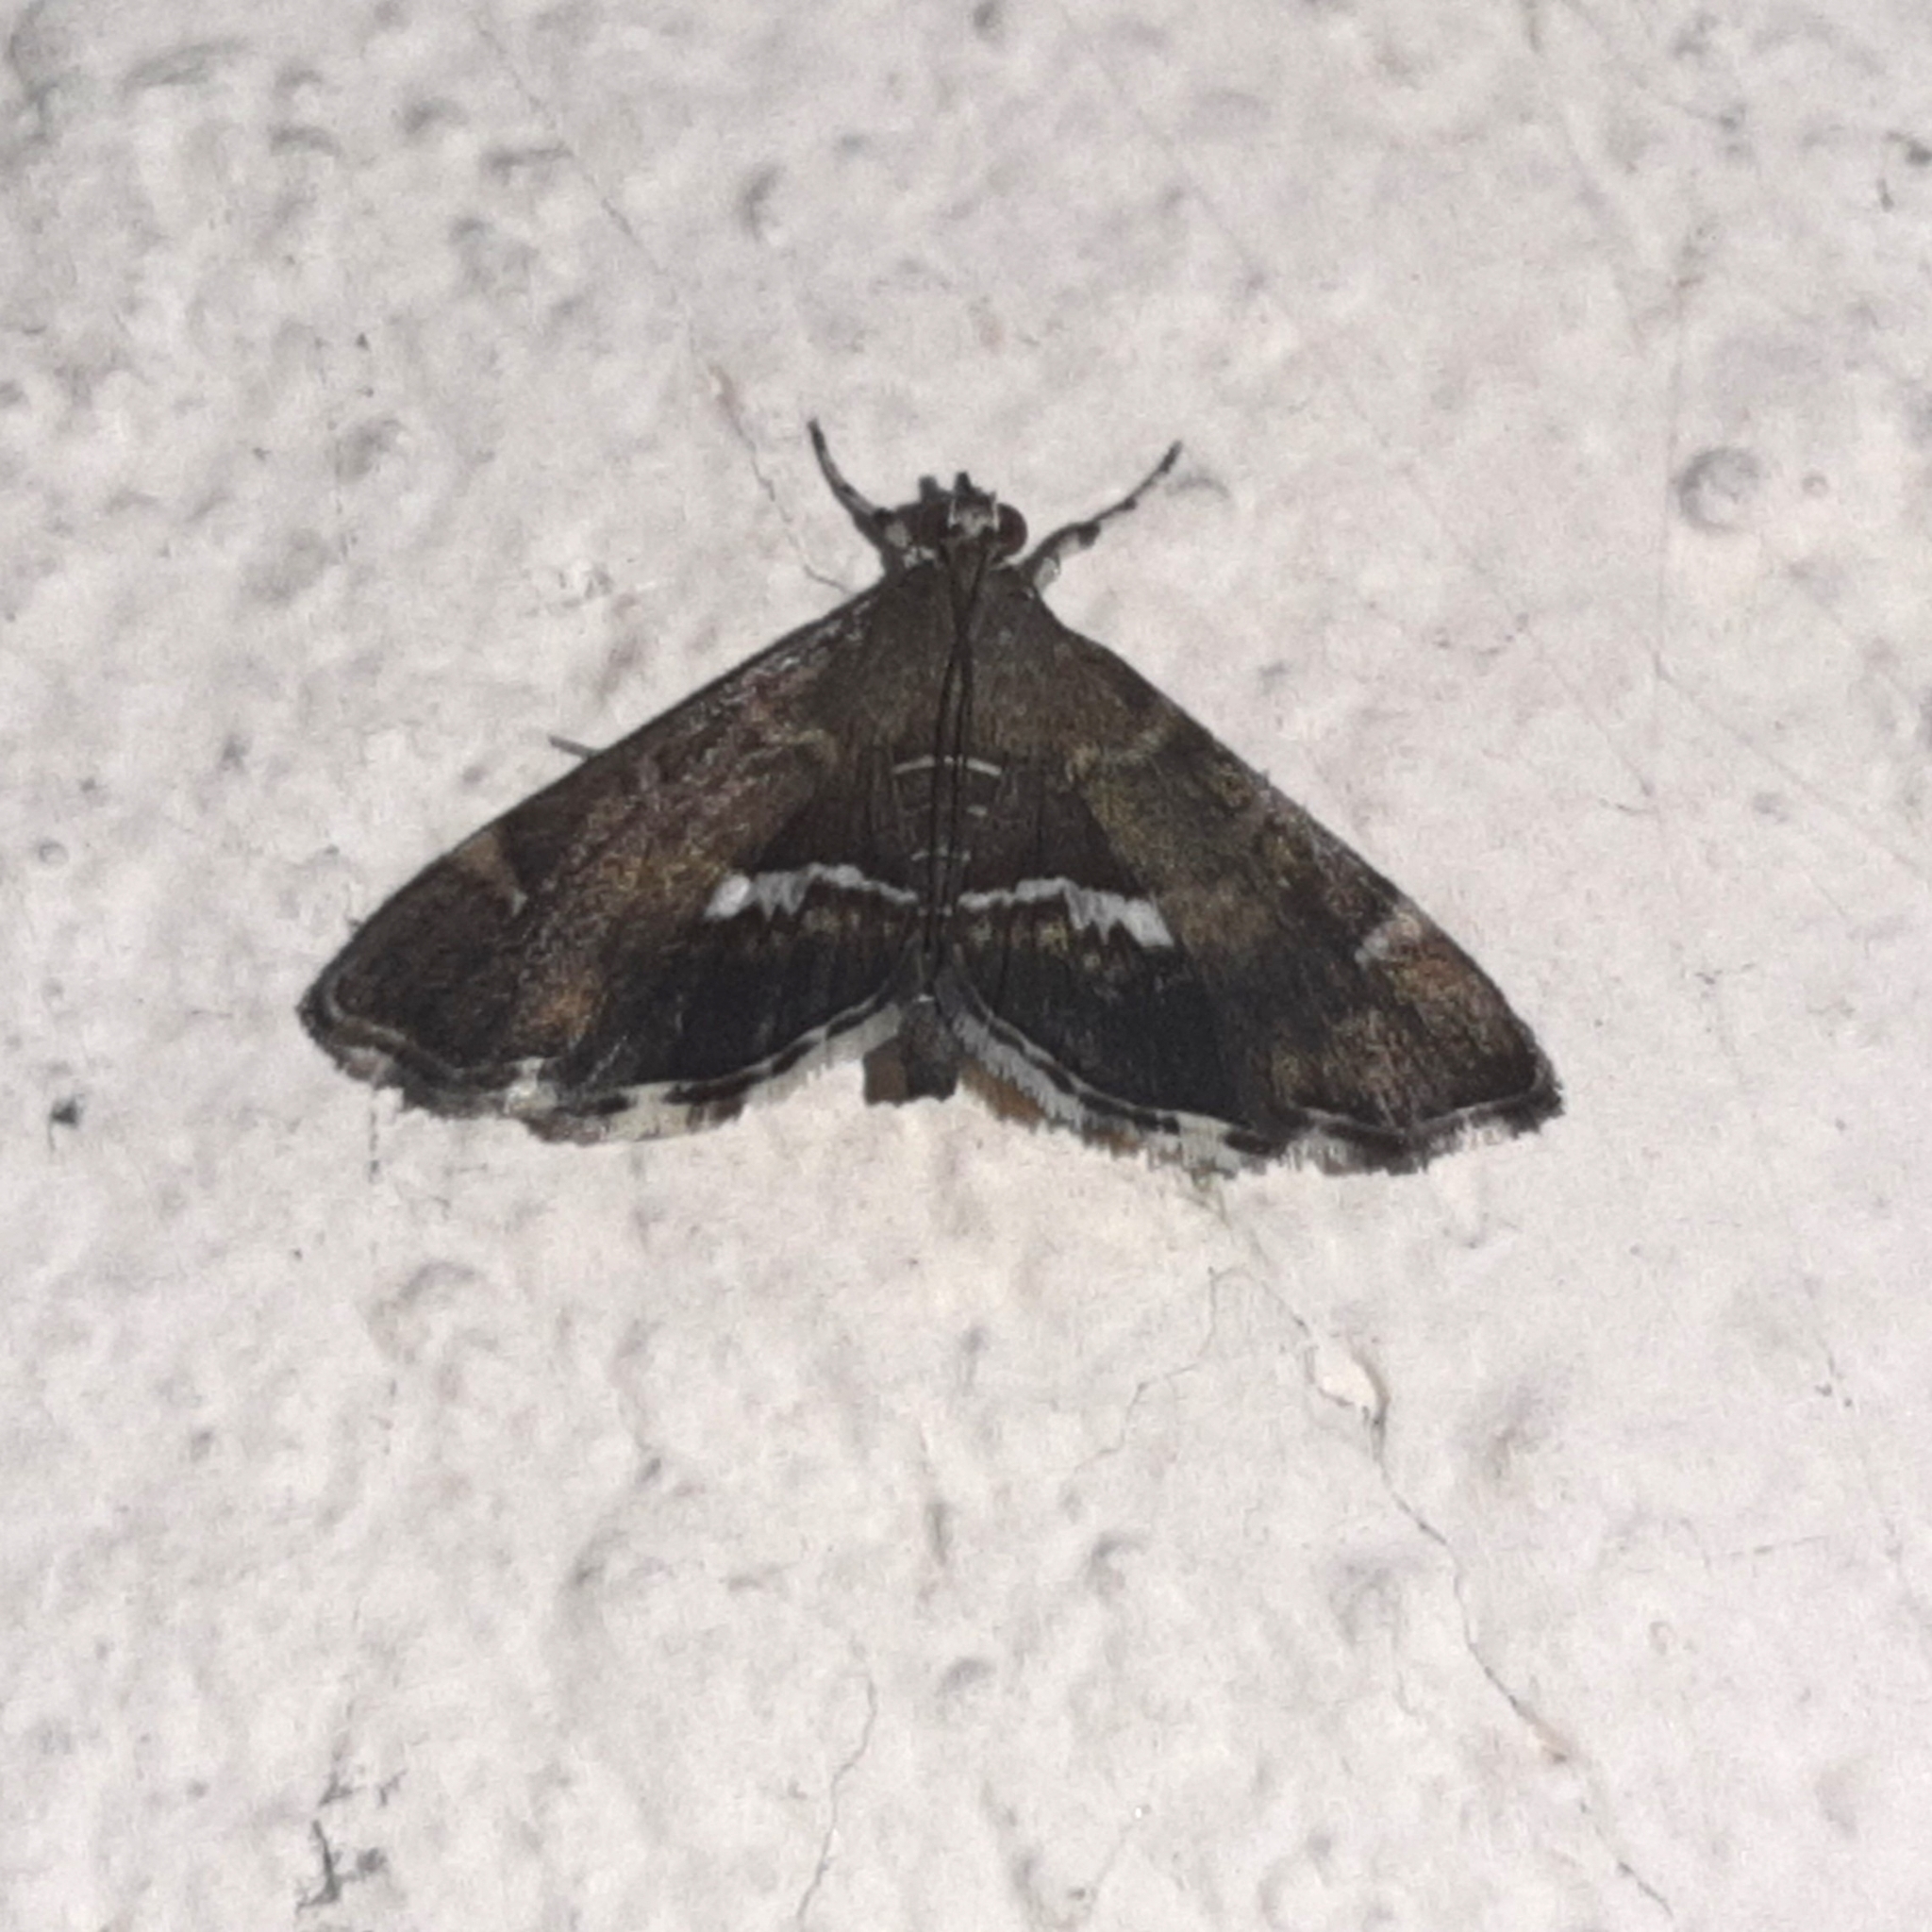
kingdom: Animalia
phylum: Arthropoda
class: Insecta
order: Lepidoptera
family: Crambidae
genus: Hymenia
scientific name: Hymenia perspectalis
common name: Spotted beet webworm
